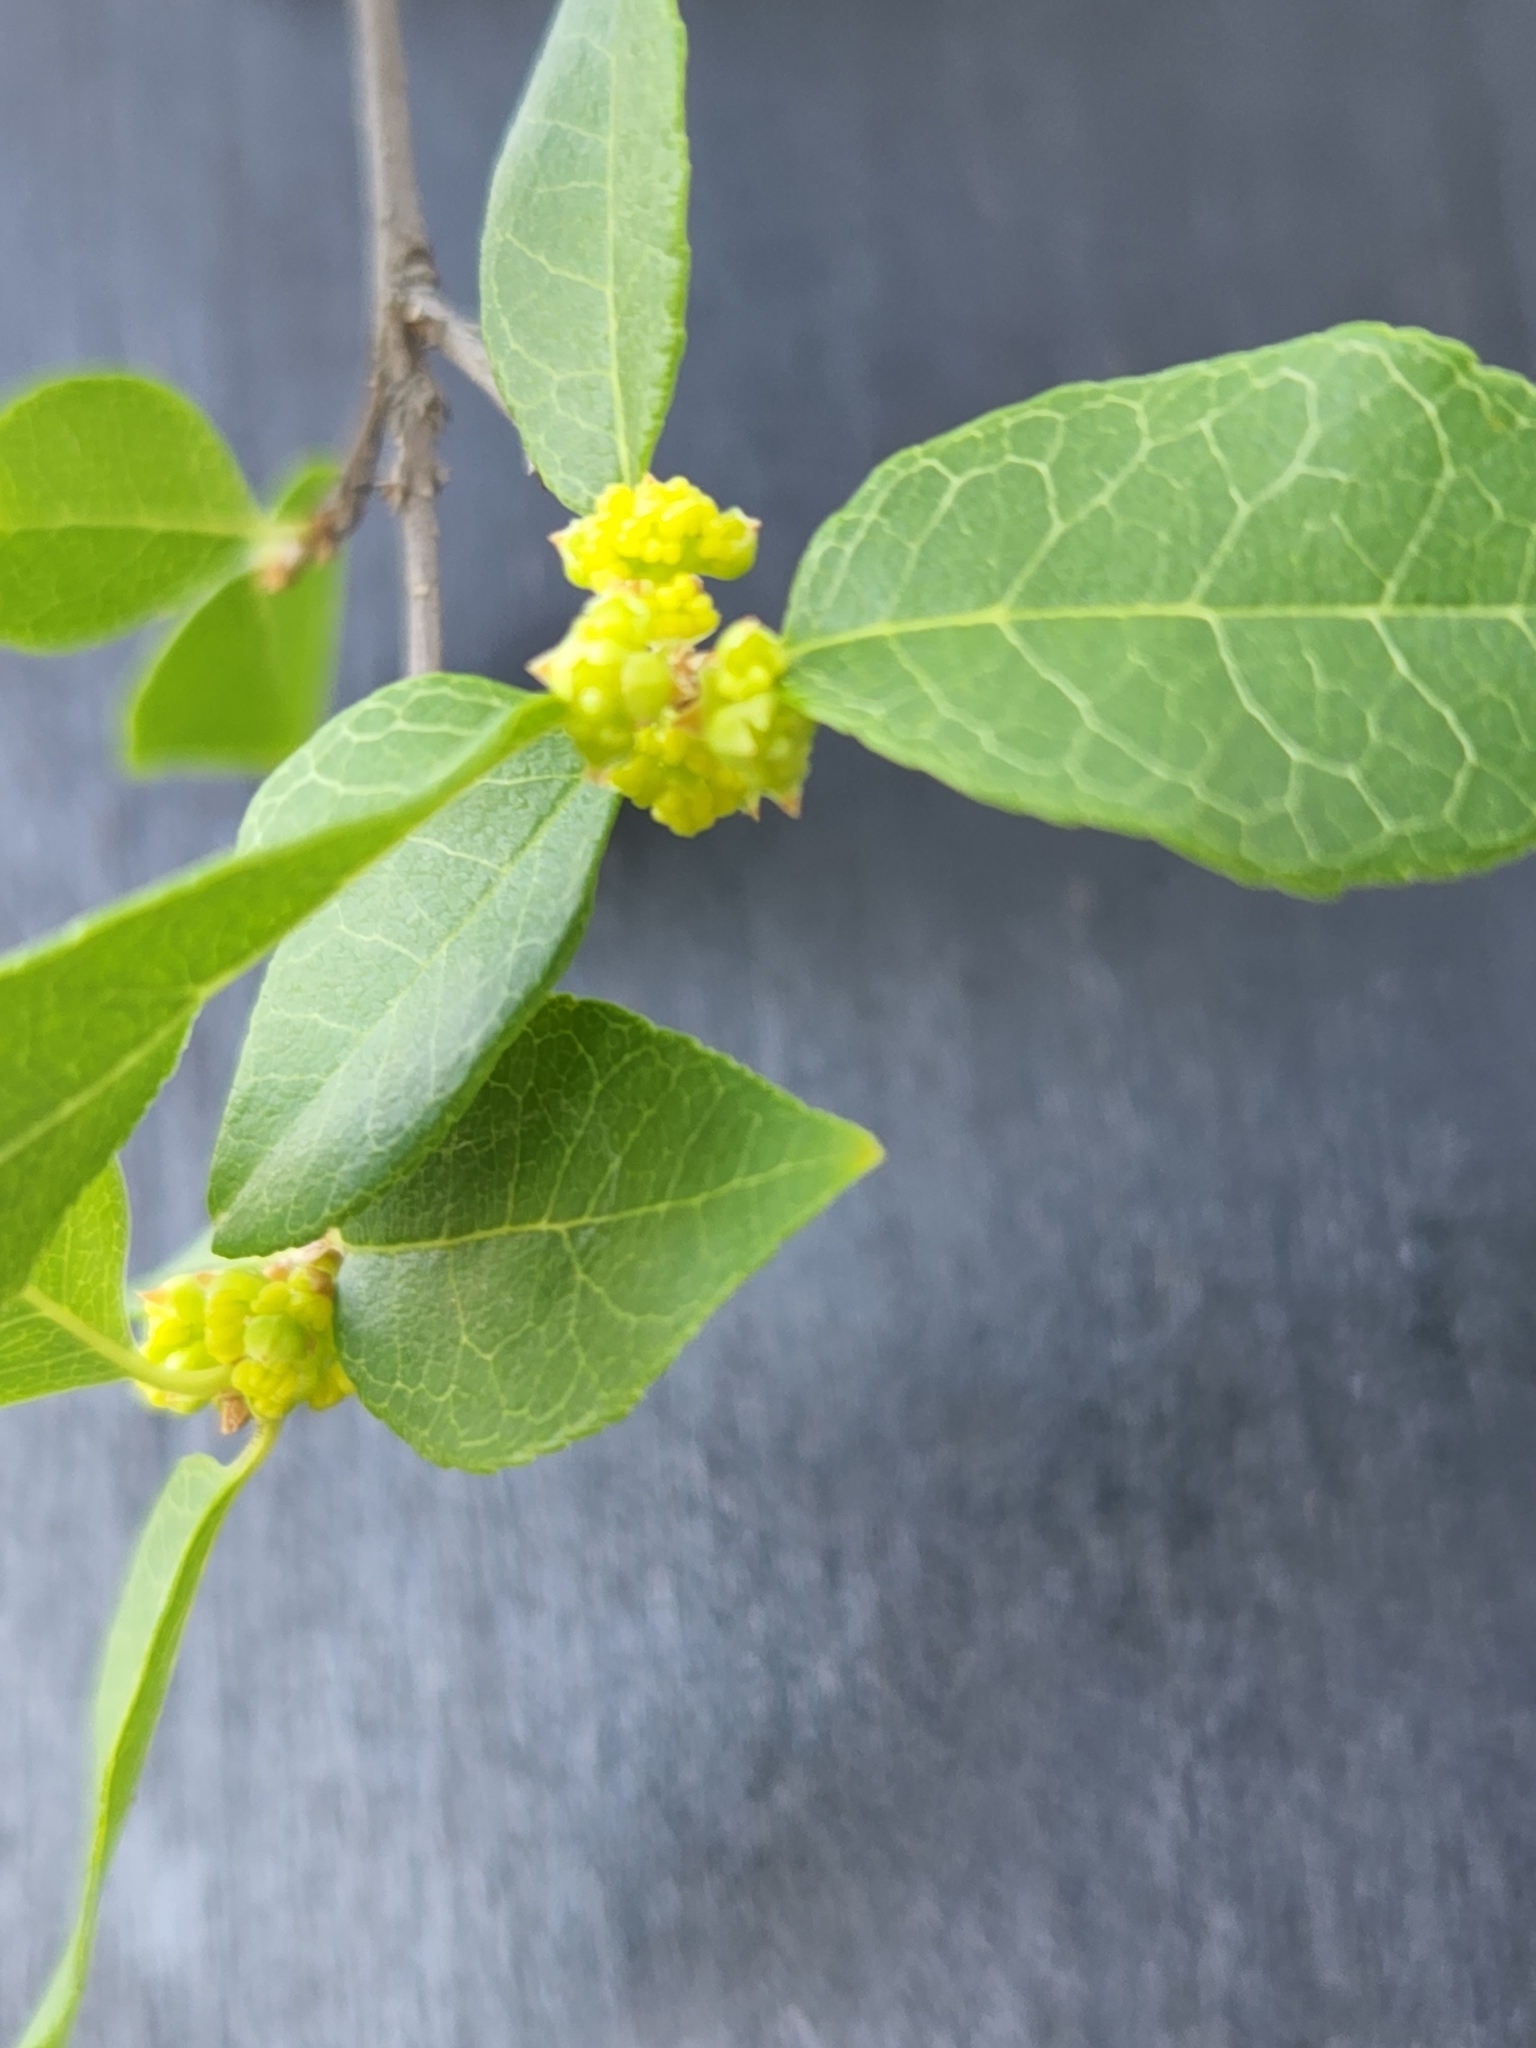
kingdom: Plantae
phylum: Tracheophyta
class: Magnoliopsida
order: Lamiales
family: Oleaceae
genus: Forestiera
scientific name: Forestiera reticulata
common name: Netleaf swamp-privet
